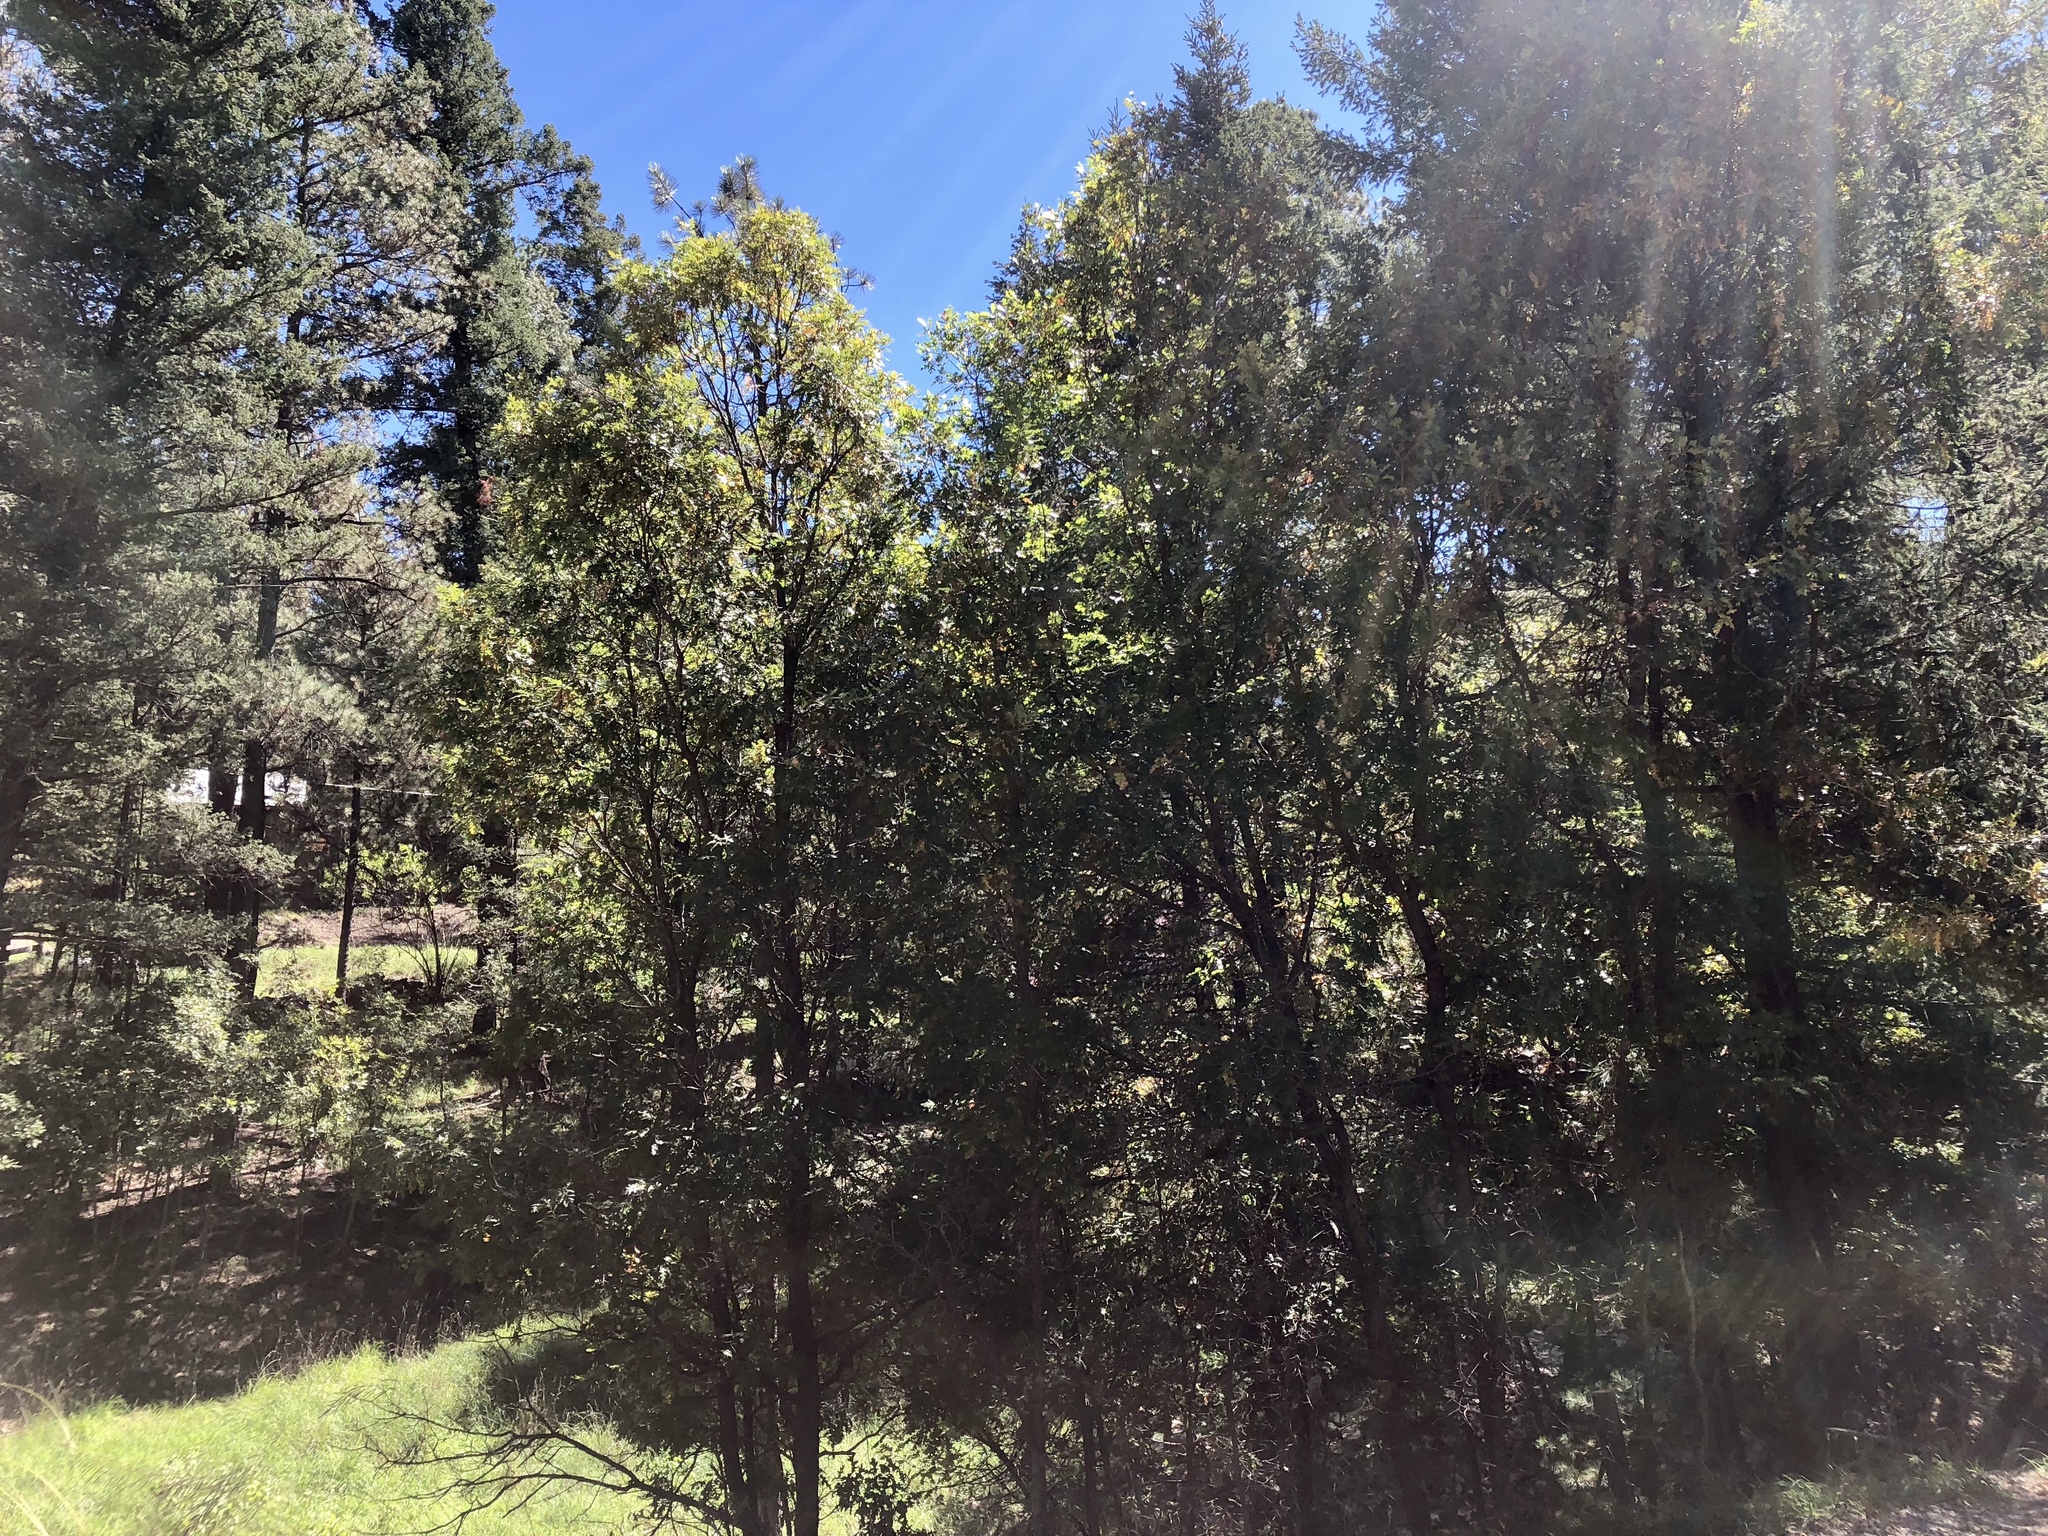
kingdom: Plantae
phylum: Tracheophyta
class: Magnoliopsida
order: Fagales
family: Fagaceae
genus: Quercus
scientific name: Quercus gambelii
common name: Gambel oak
